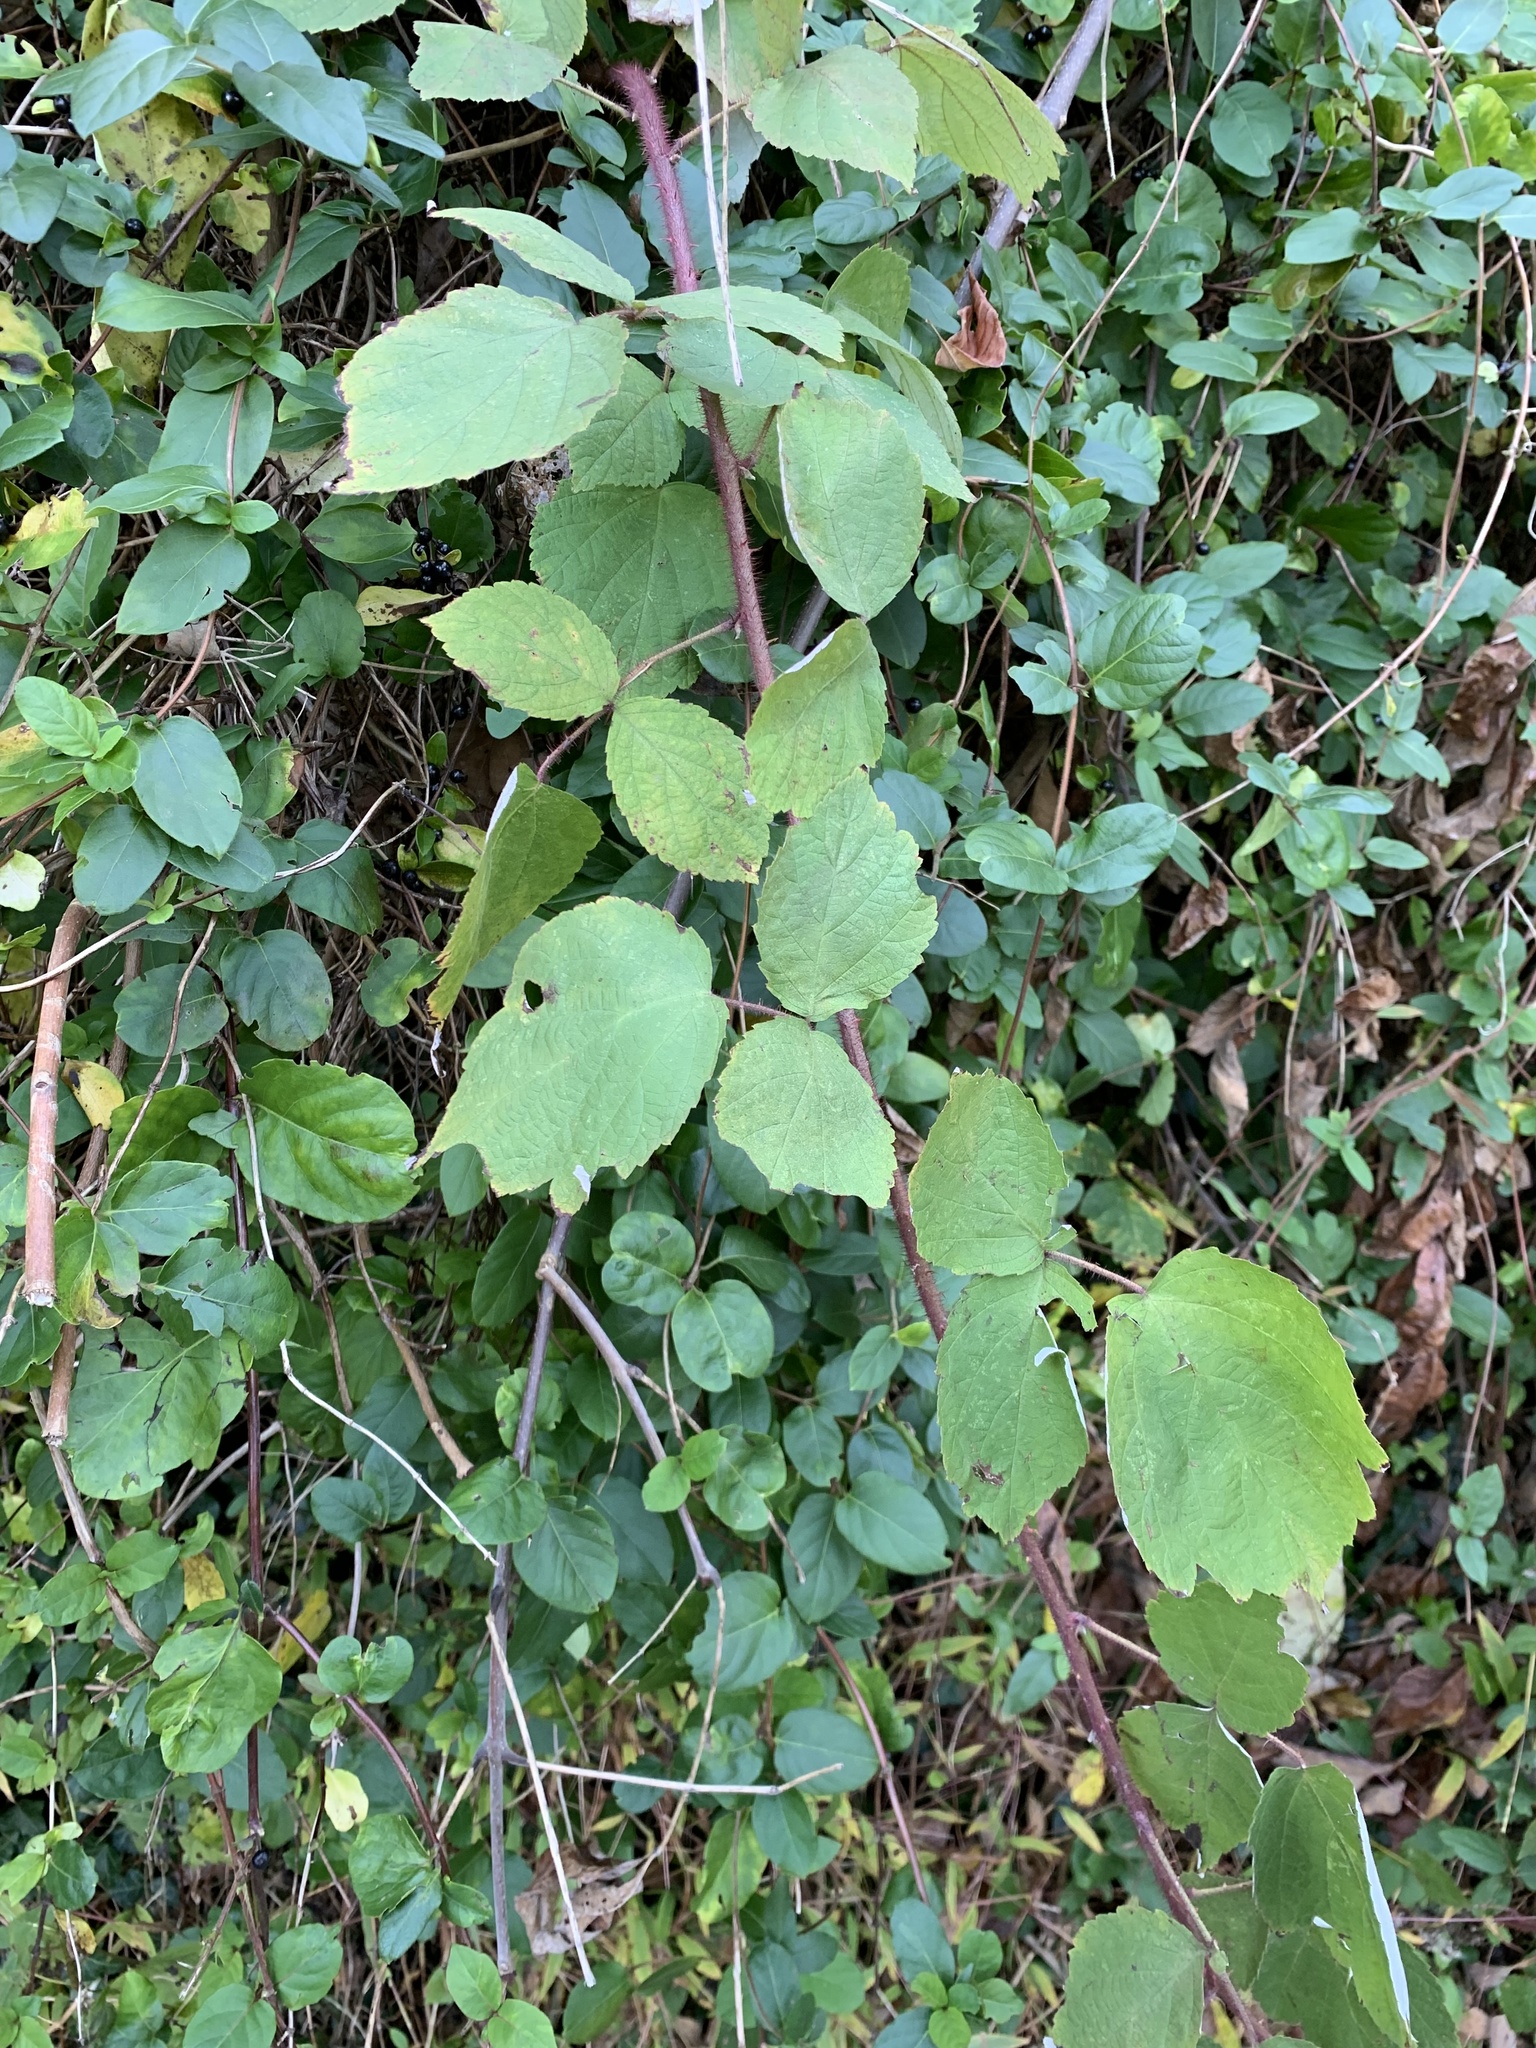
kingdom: Plantae
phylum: Tracheophyta
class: Magnoliopsida
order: Rosales
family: Rosaceae
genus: Rubus
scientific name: Rubus phoenicolasius
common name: Japanese wineberry
